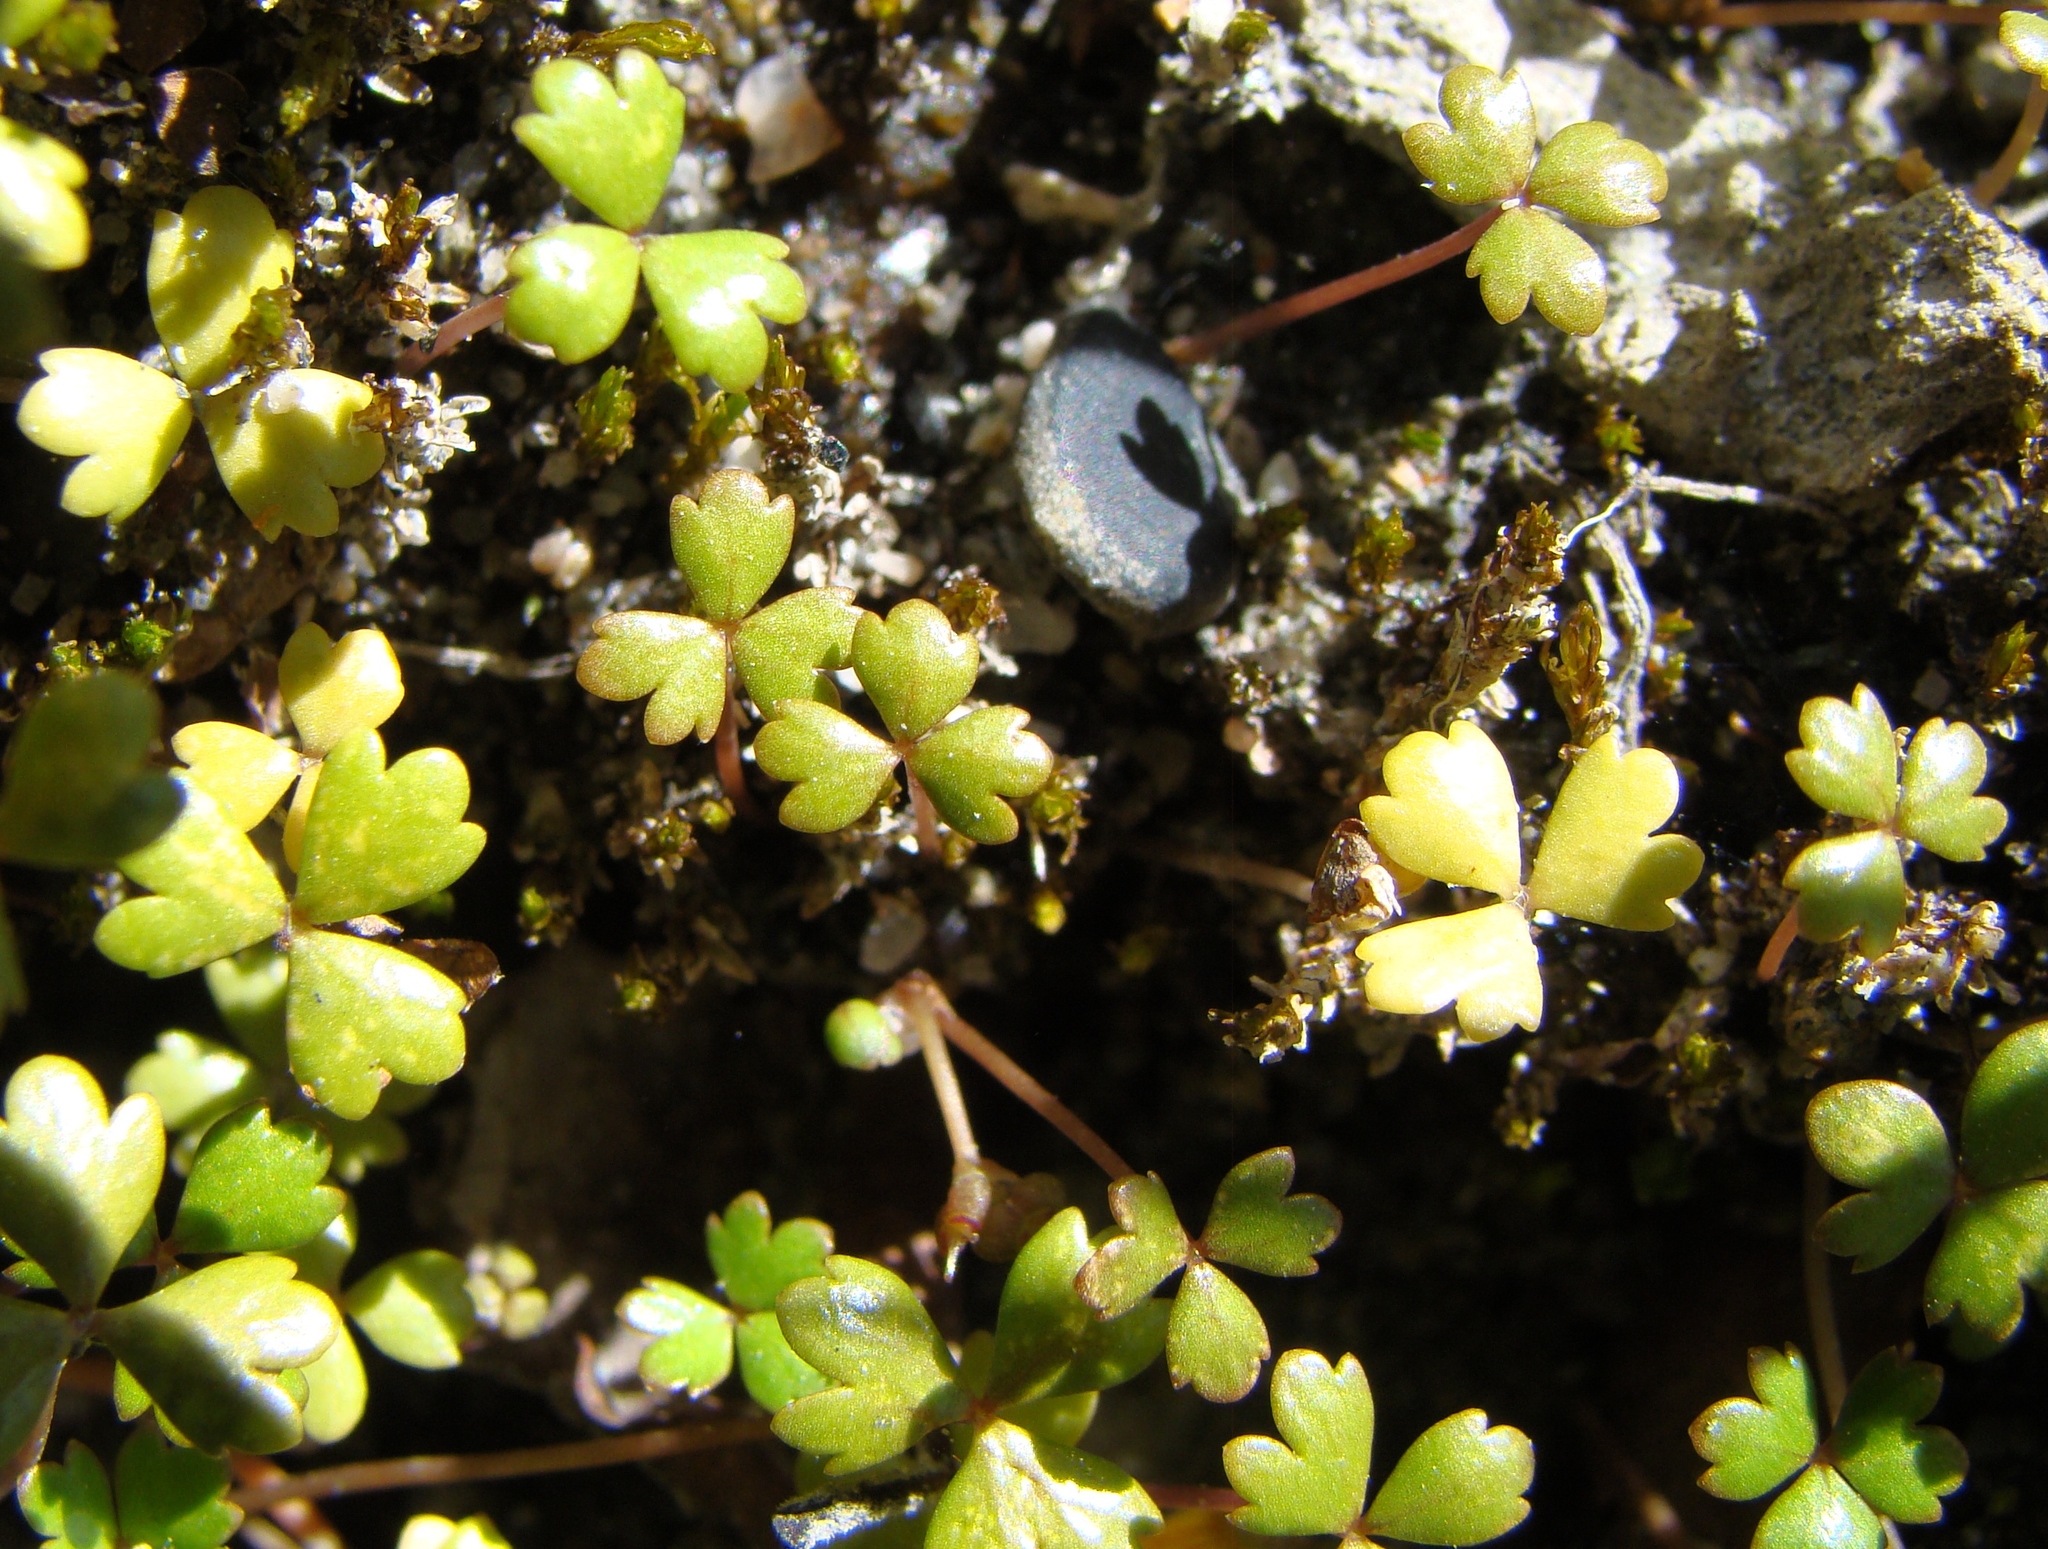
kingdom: Plantae
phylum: Tracheophyta
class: Magnoliopsida
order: Apiales
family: Araliaceae
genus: Hydrocotyle
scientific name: Hydrocotyle sulcata
